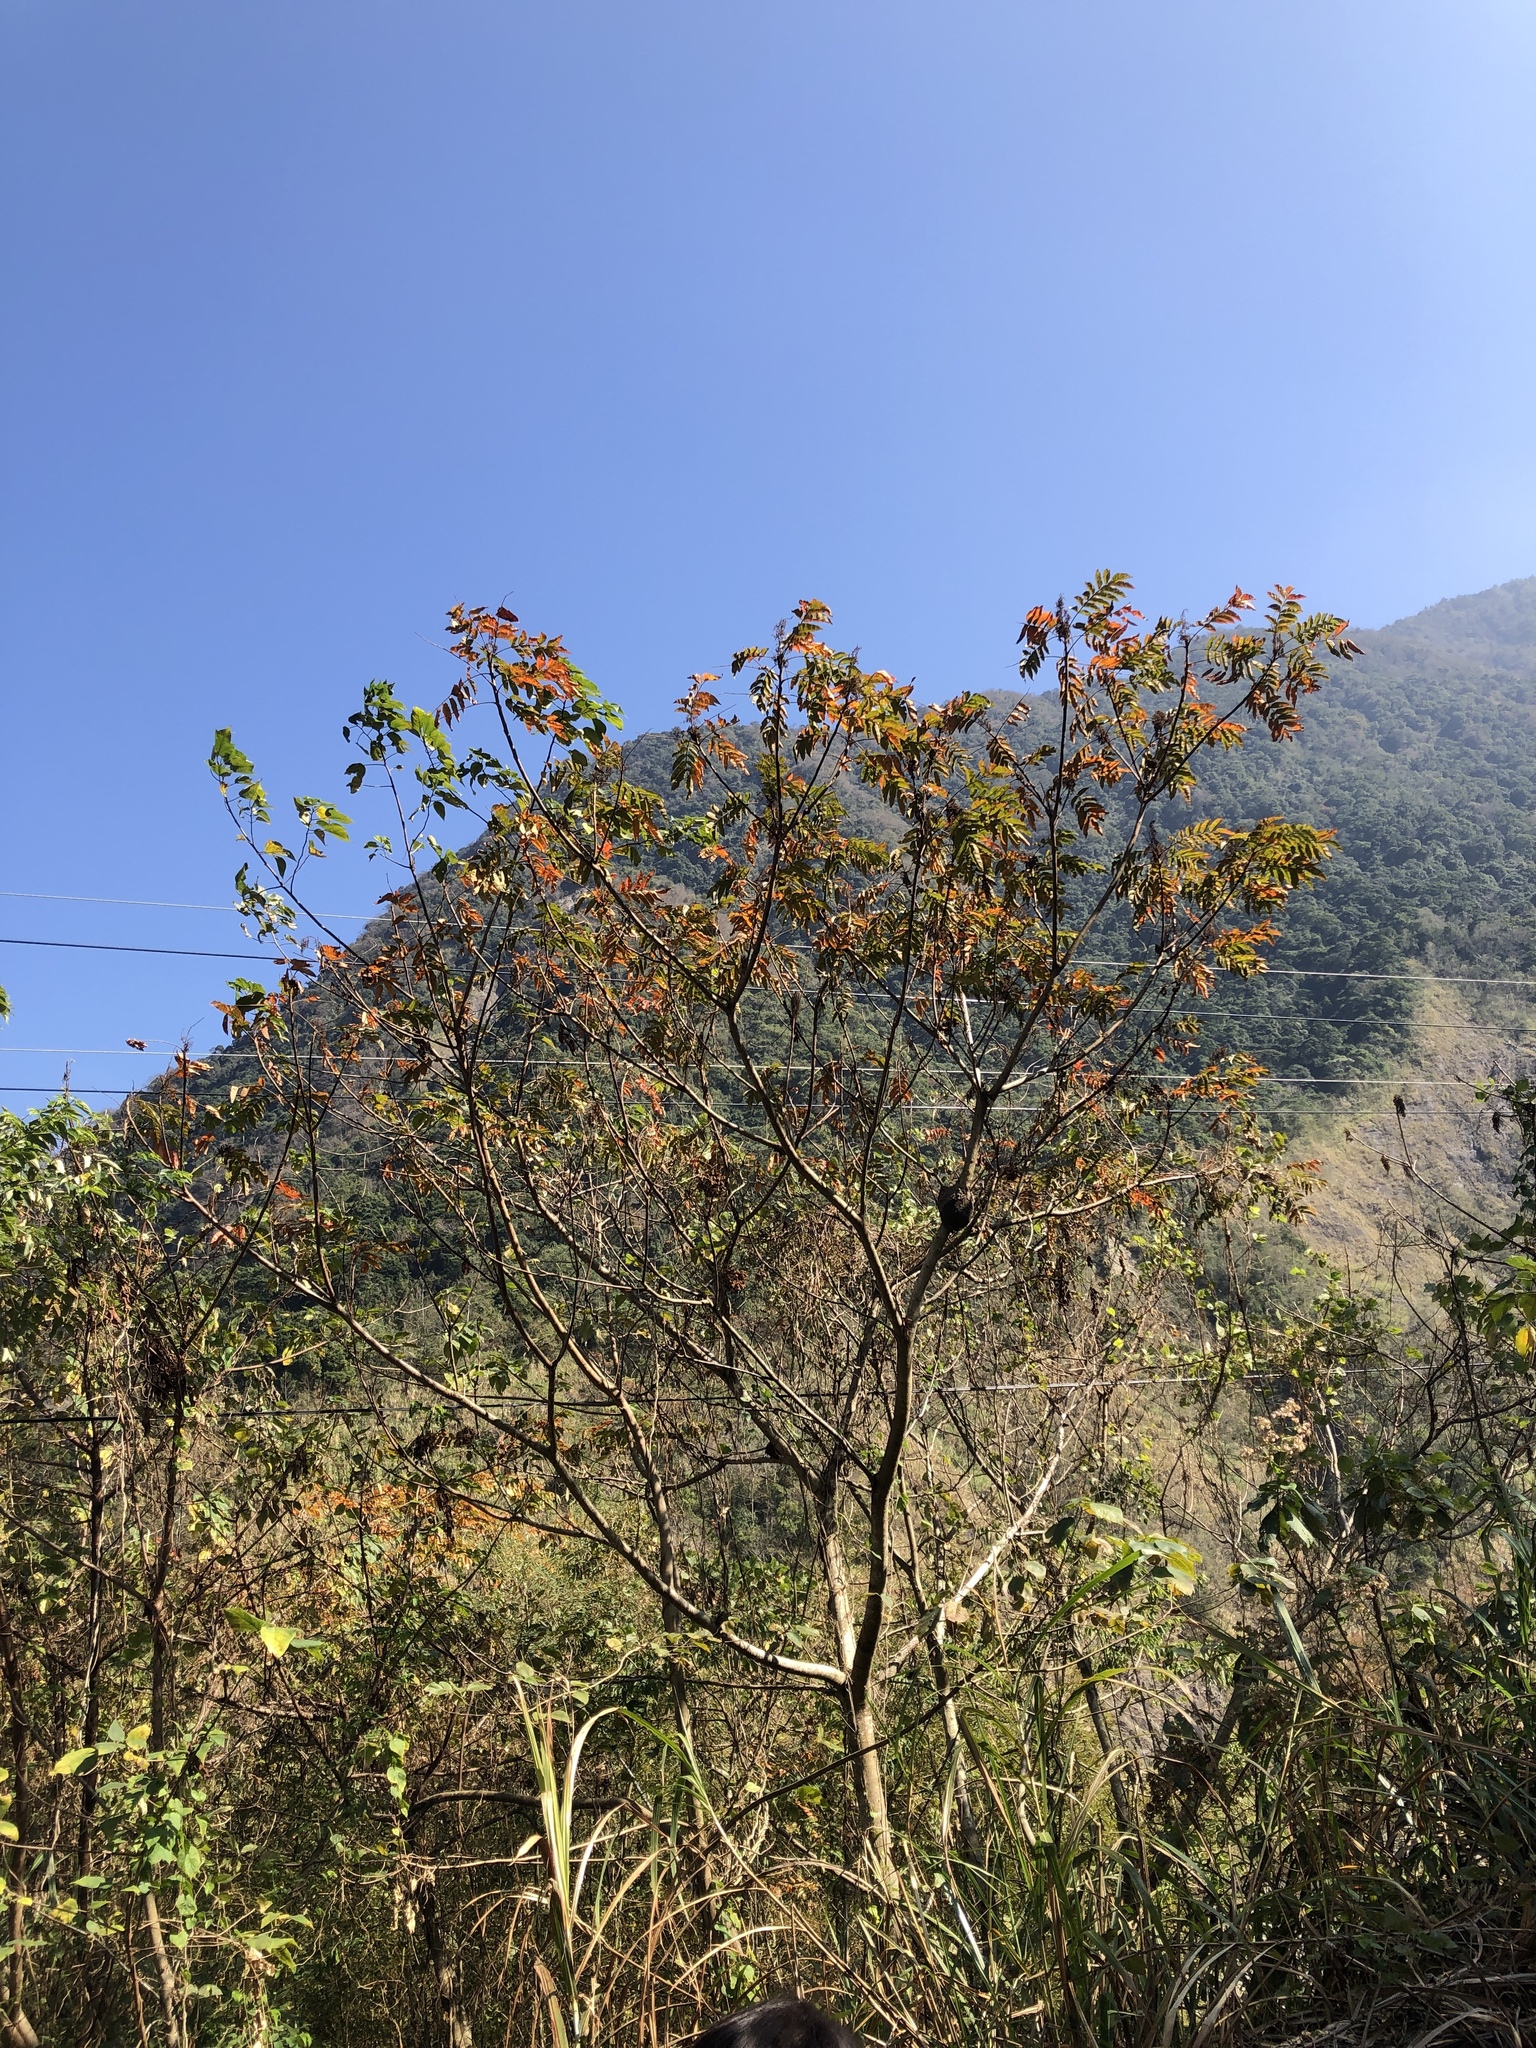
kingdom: Plantae
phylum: Tracheophyta
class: Magnoliopsida
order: Sapindales
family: Anacardiaceae
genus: Rhus
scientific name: Rhus chinensis
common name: Chinese gall
